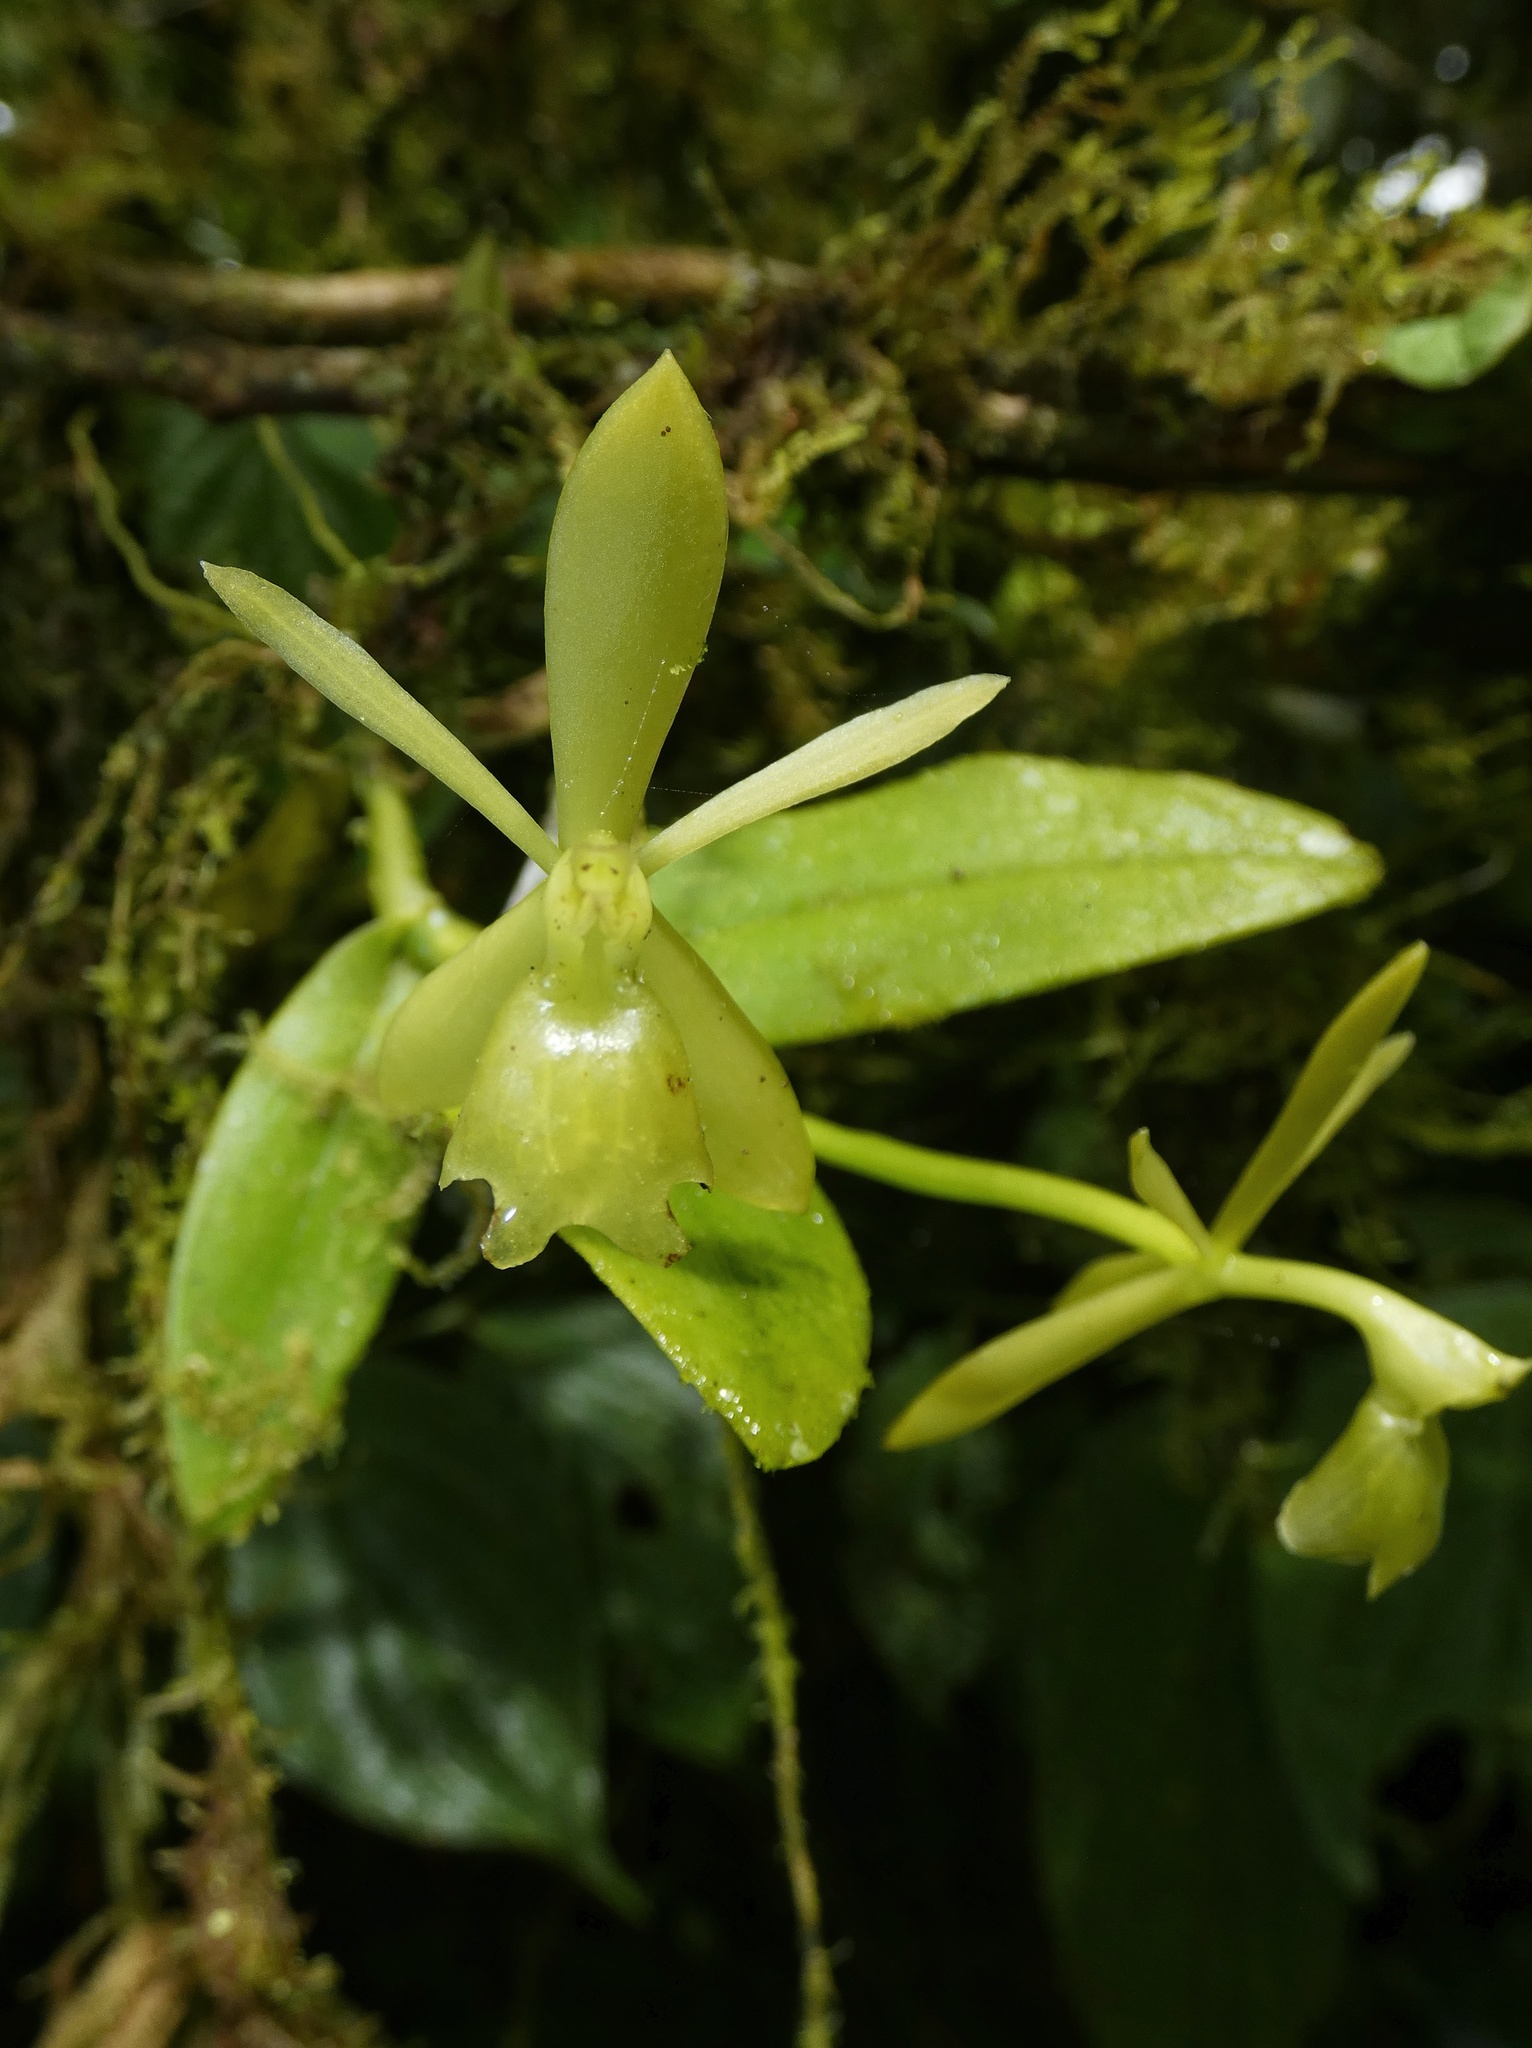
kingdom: Plantae
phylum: Tracheophyta
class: Liliopsida
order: Asparagales
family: Orchidaceae
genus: Epidendrum
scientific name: Epidendrum barbeyanum
